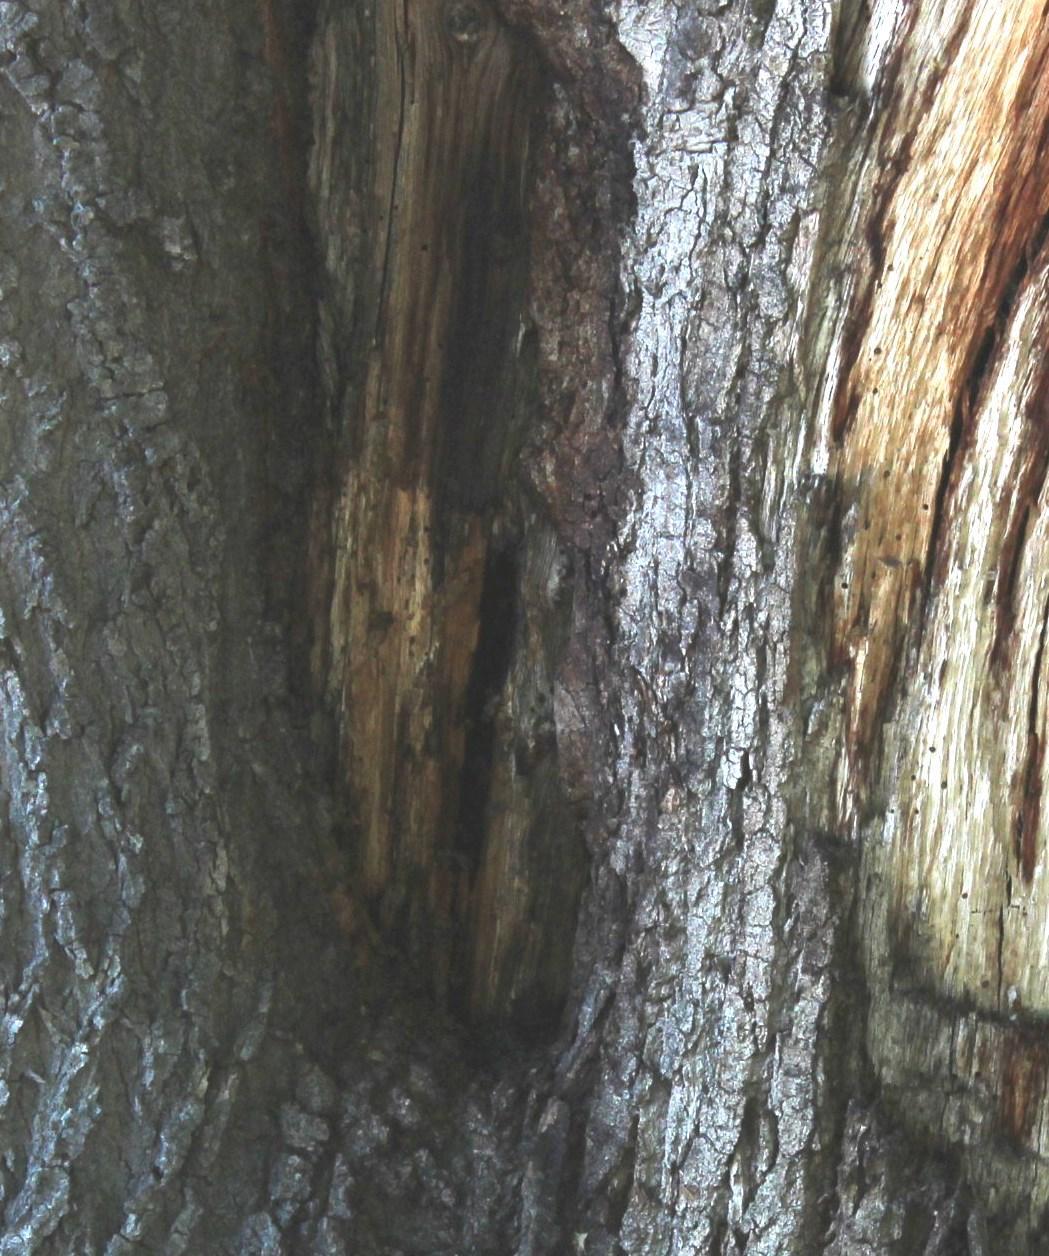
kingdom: Animalia
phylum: Arthropoda
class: Insecta
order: Hymenoptera
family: Apidae
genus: Apis
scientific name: Apis mellifera
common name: Honey bee
